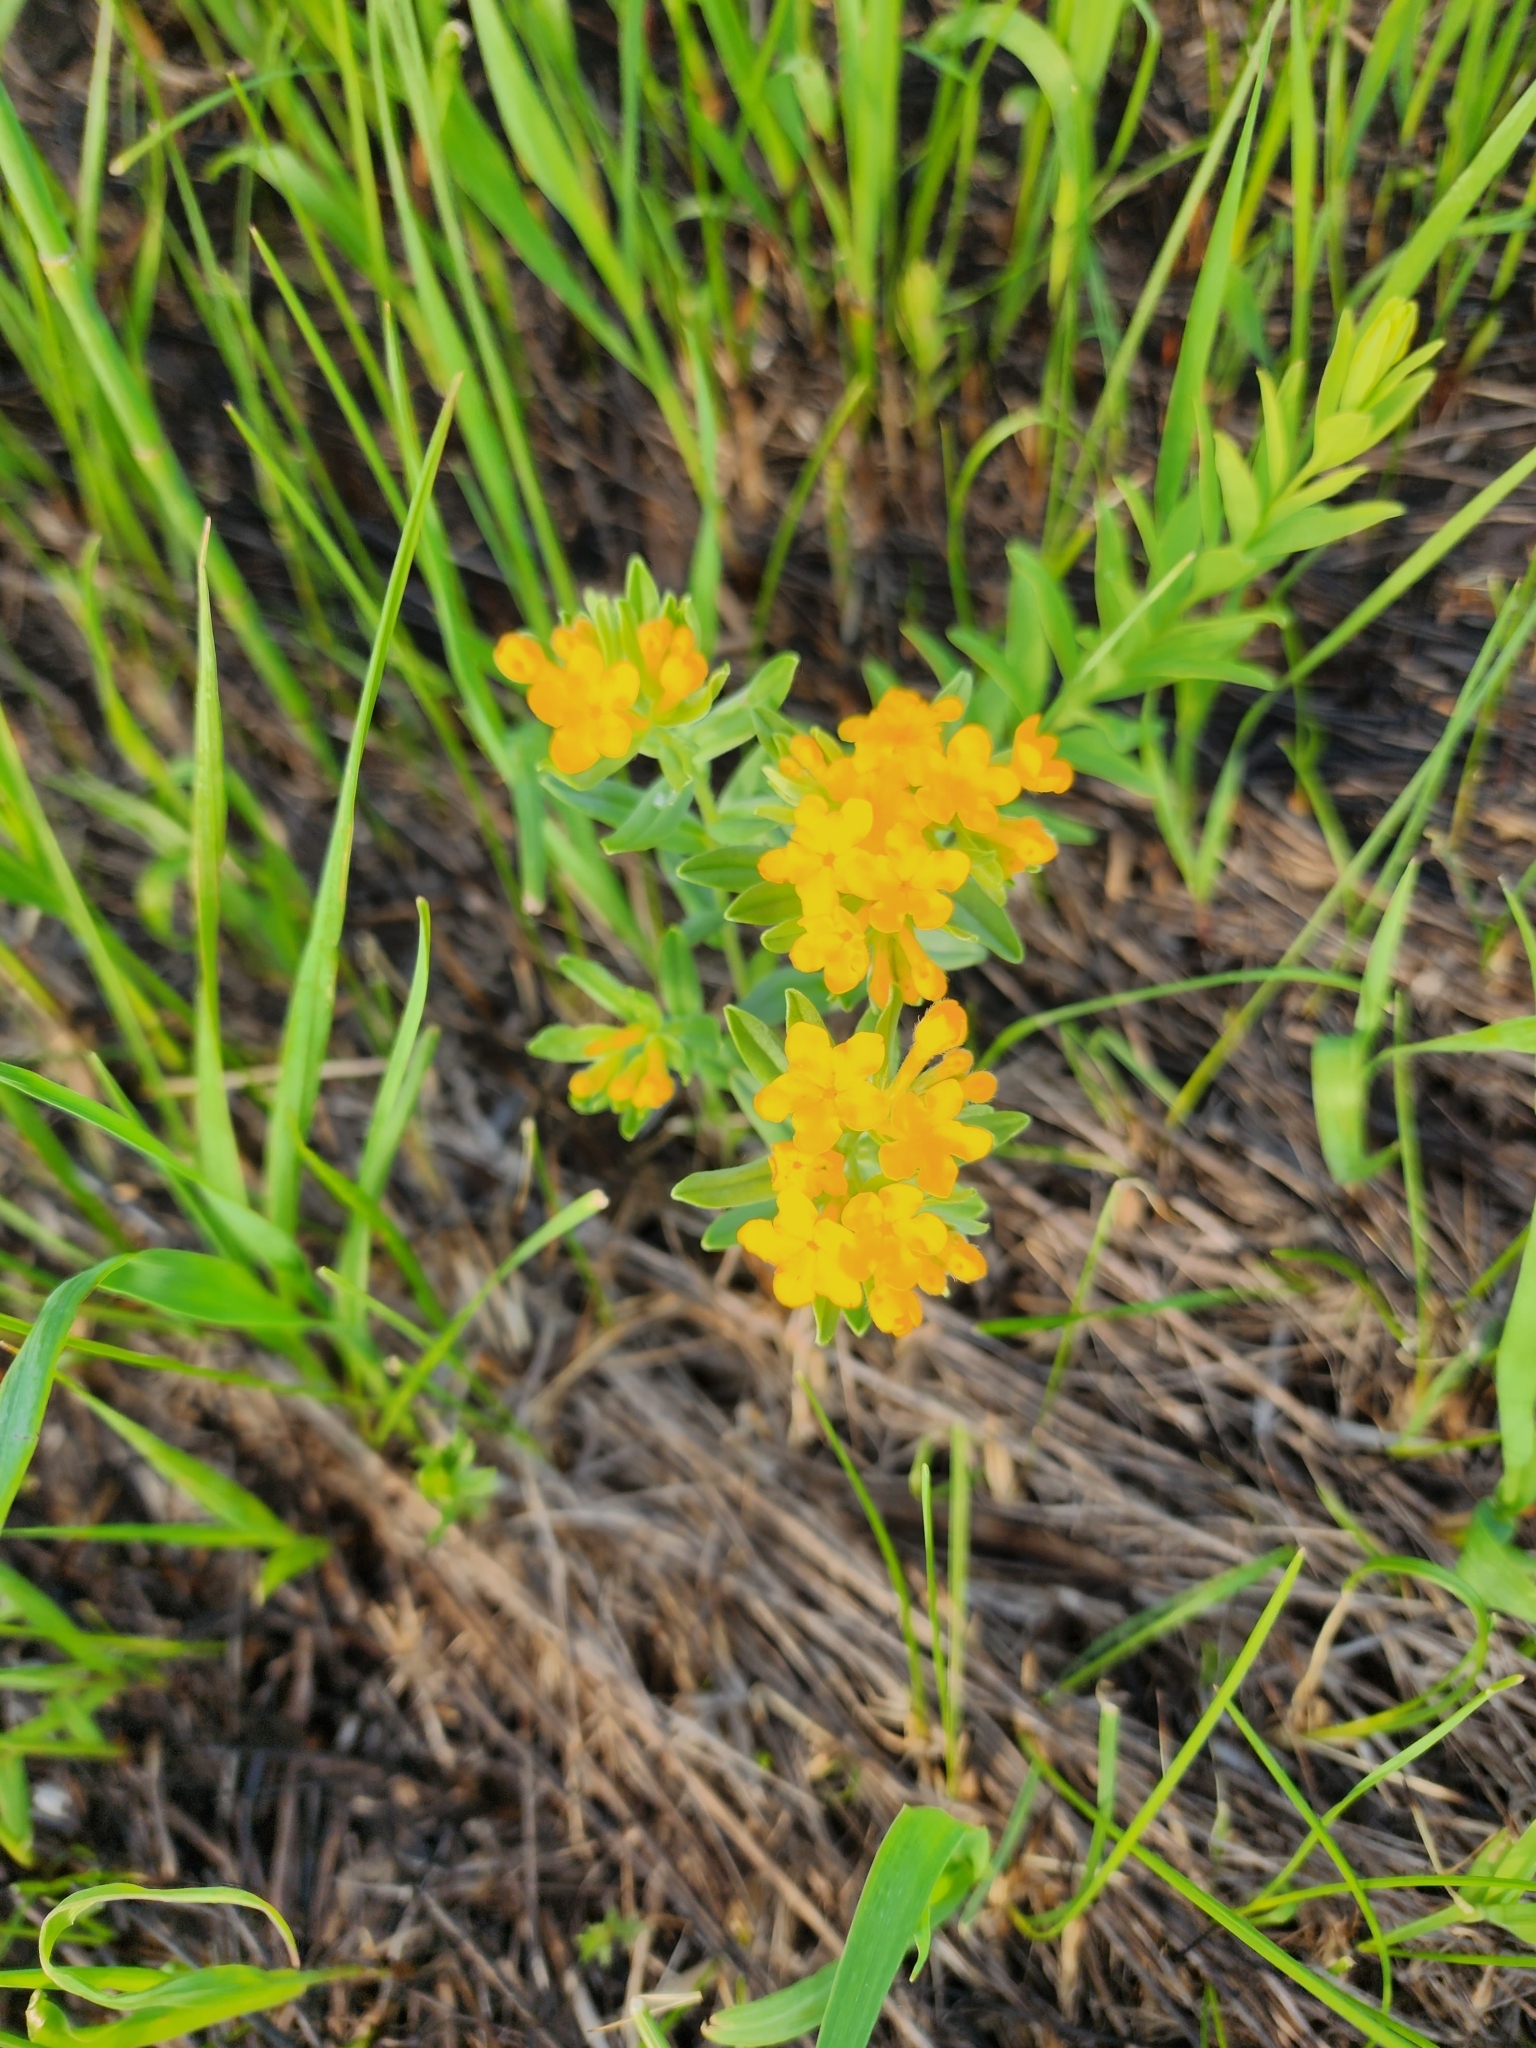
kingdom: Plantae
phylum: Tracheophyta
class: Magnoliopsida
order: Boraginales
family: Boraginaceae
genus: Lithospermum
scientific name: Lithospermum canescens
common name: Hoary puccoon
